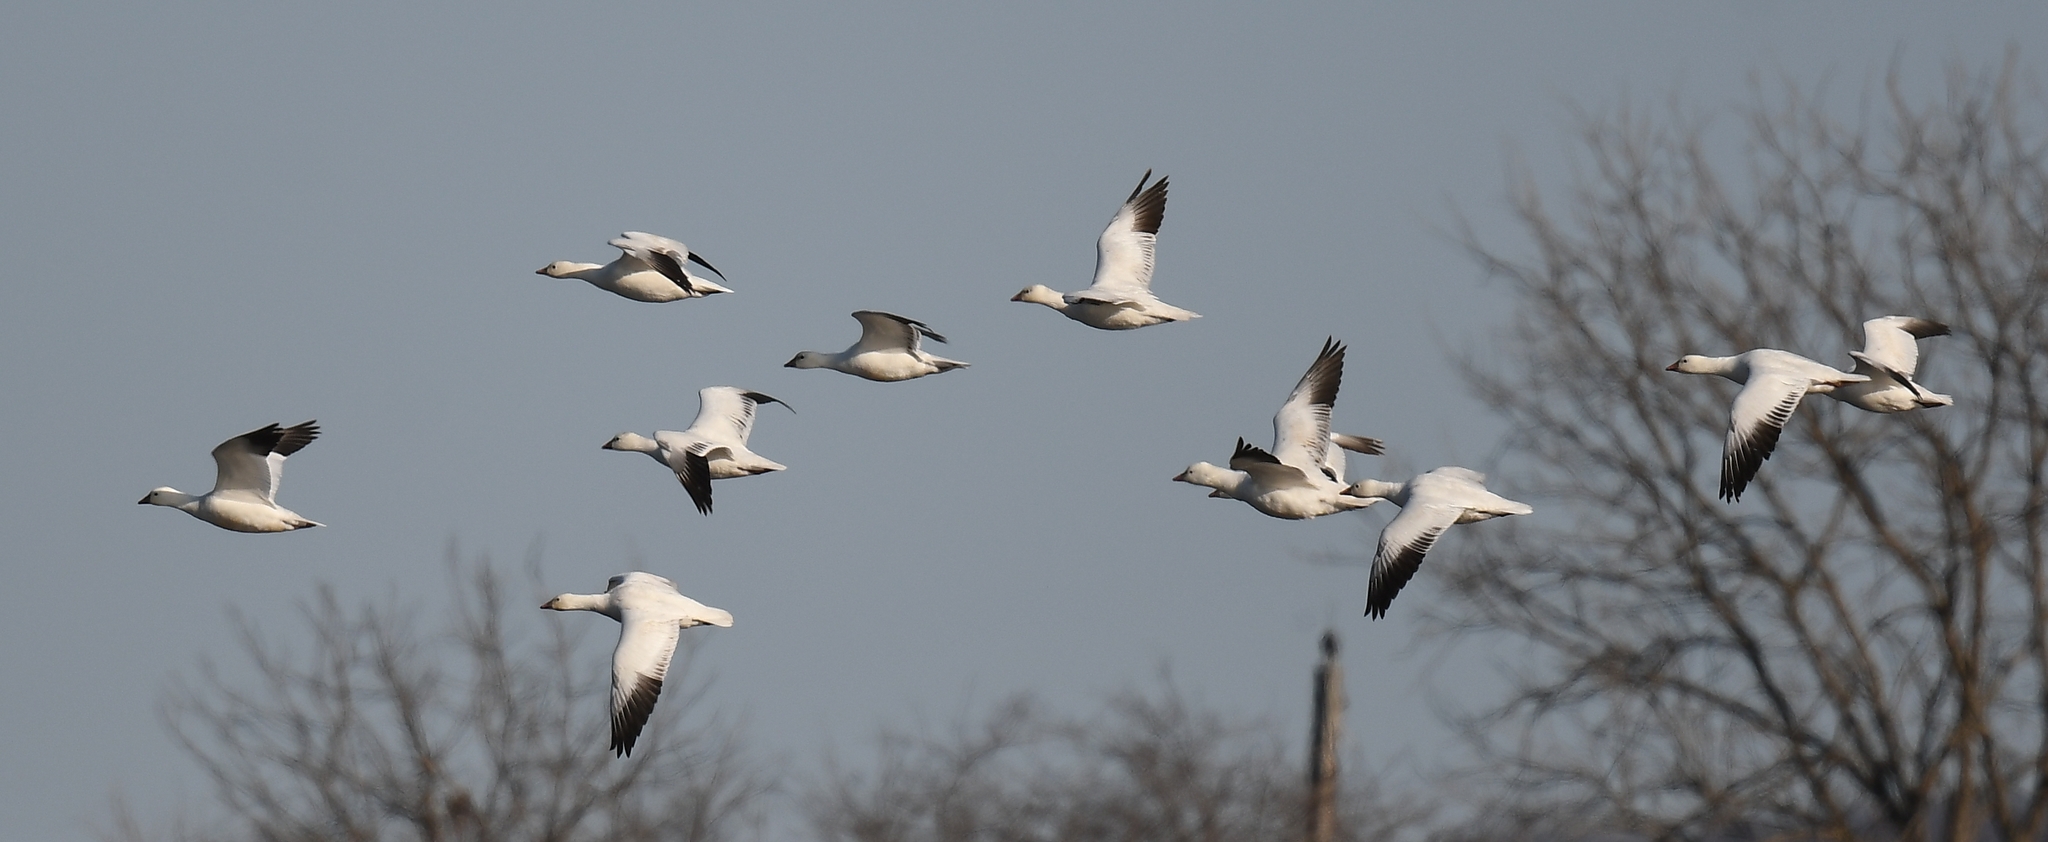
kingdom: Animalia
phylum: Chordata
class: Aves
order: Anseriformes
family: Anatidae
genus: Anser
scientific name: Anser rossii
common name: Ross's goose
